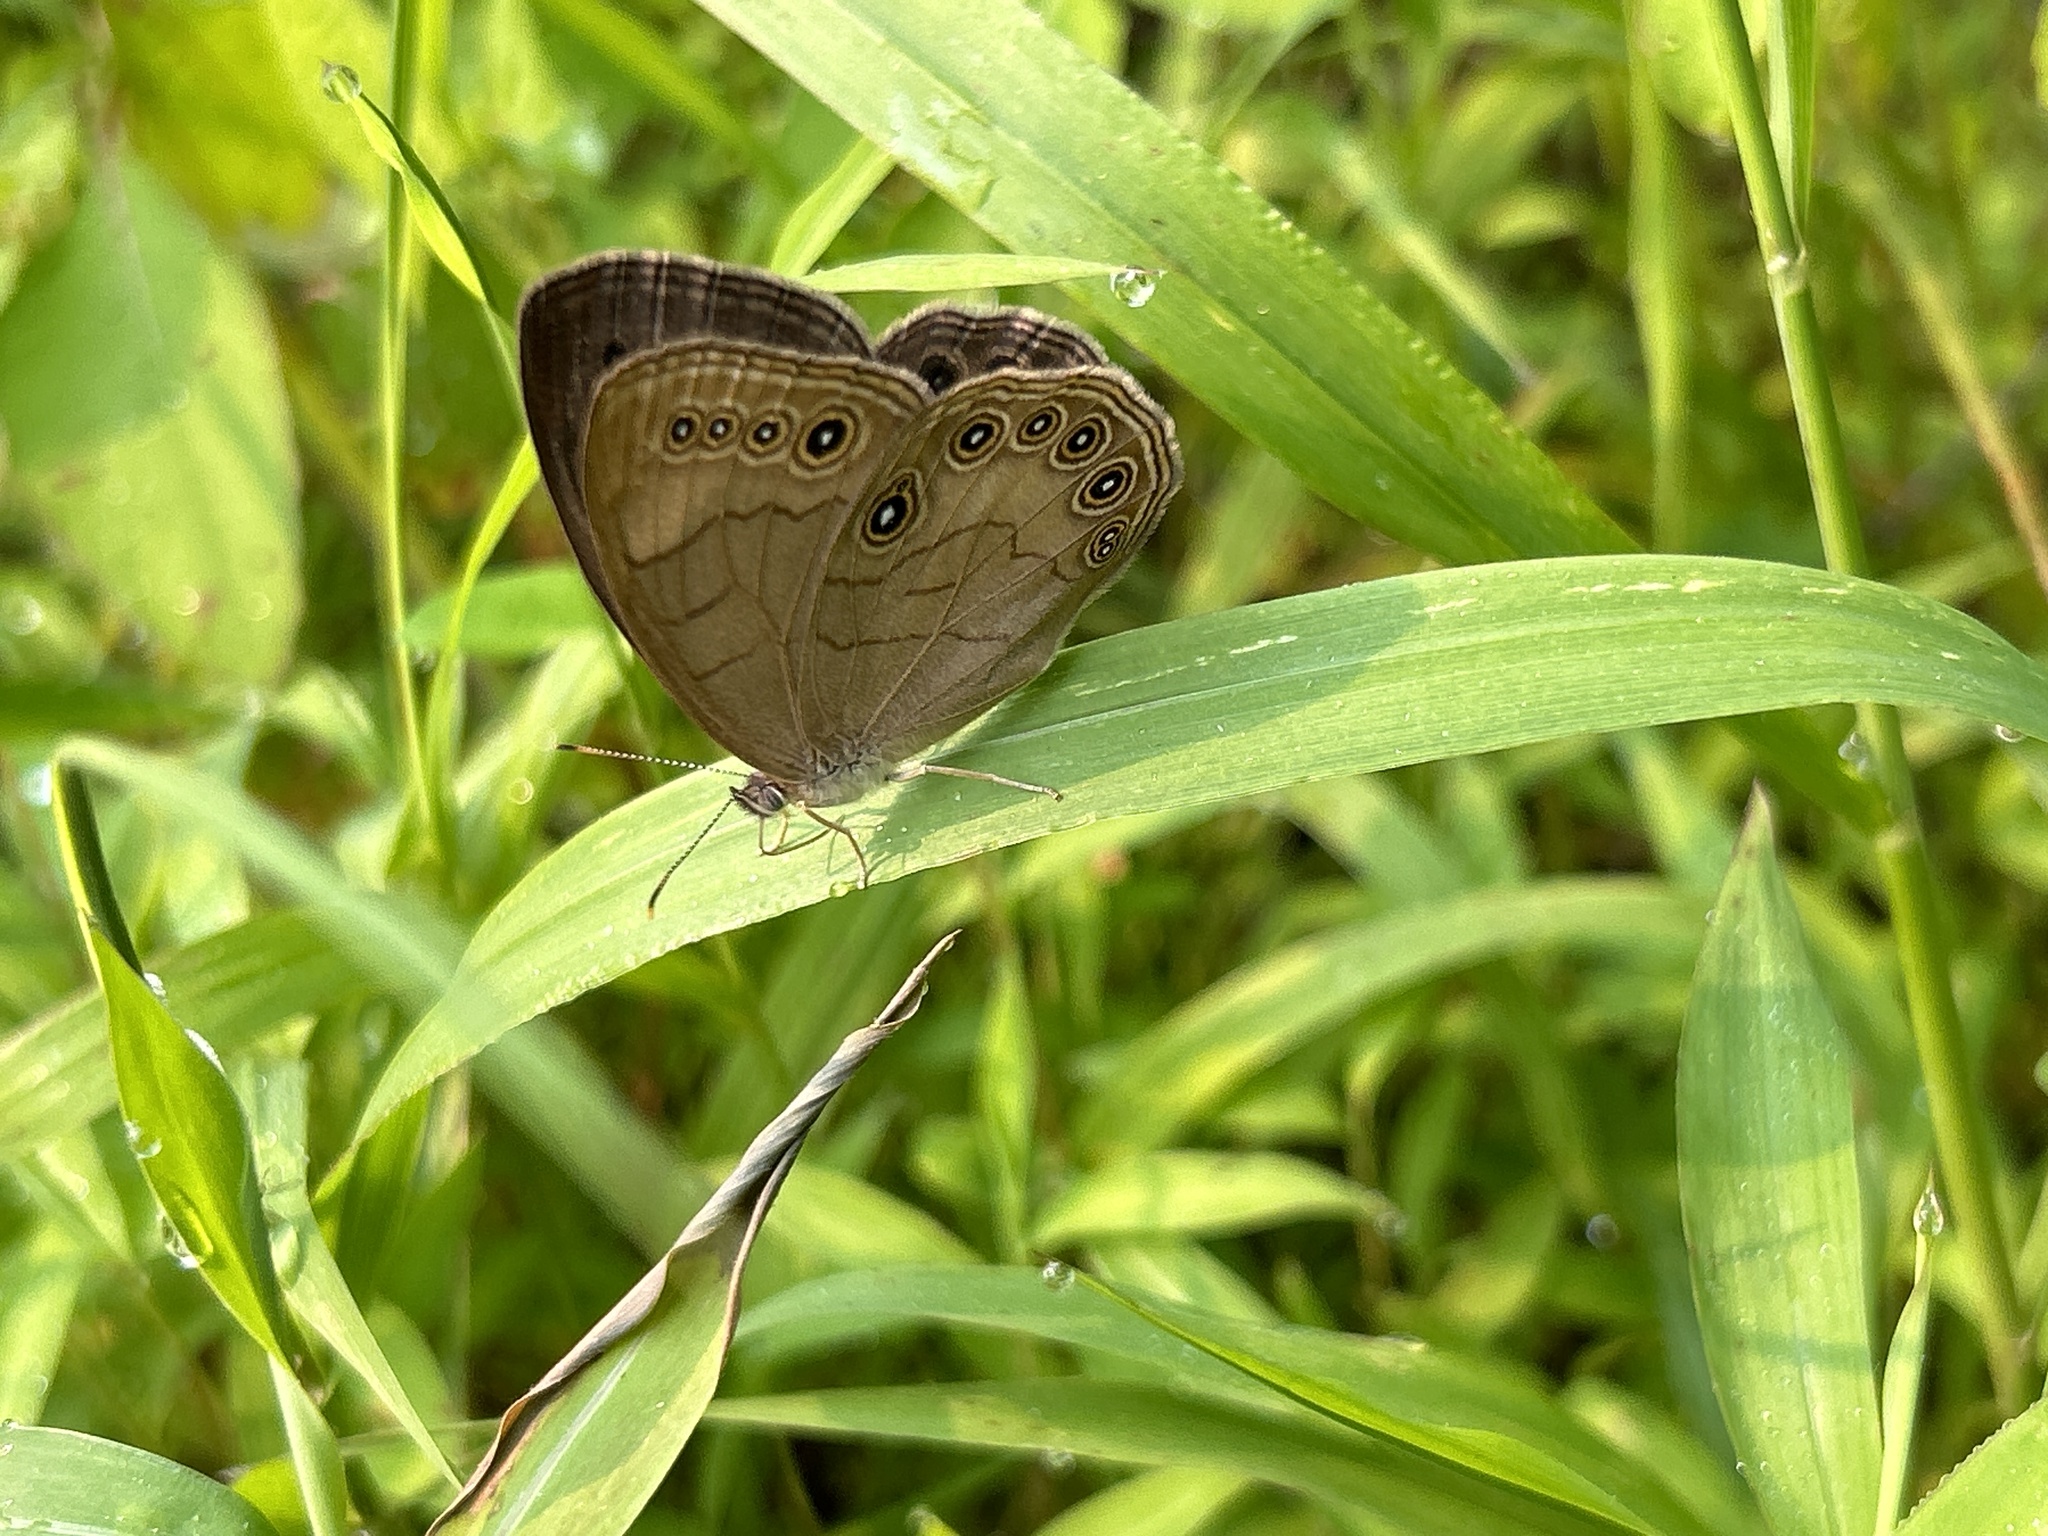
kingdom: Animalia
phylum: Arthropoda
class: Insecta
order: Lepidoptera
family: Nymphalidae
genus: Lethe
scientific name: Lethe eurydice
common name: Eyed brown
